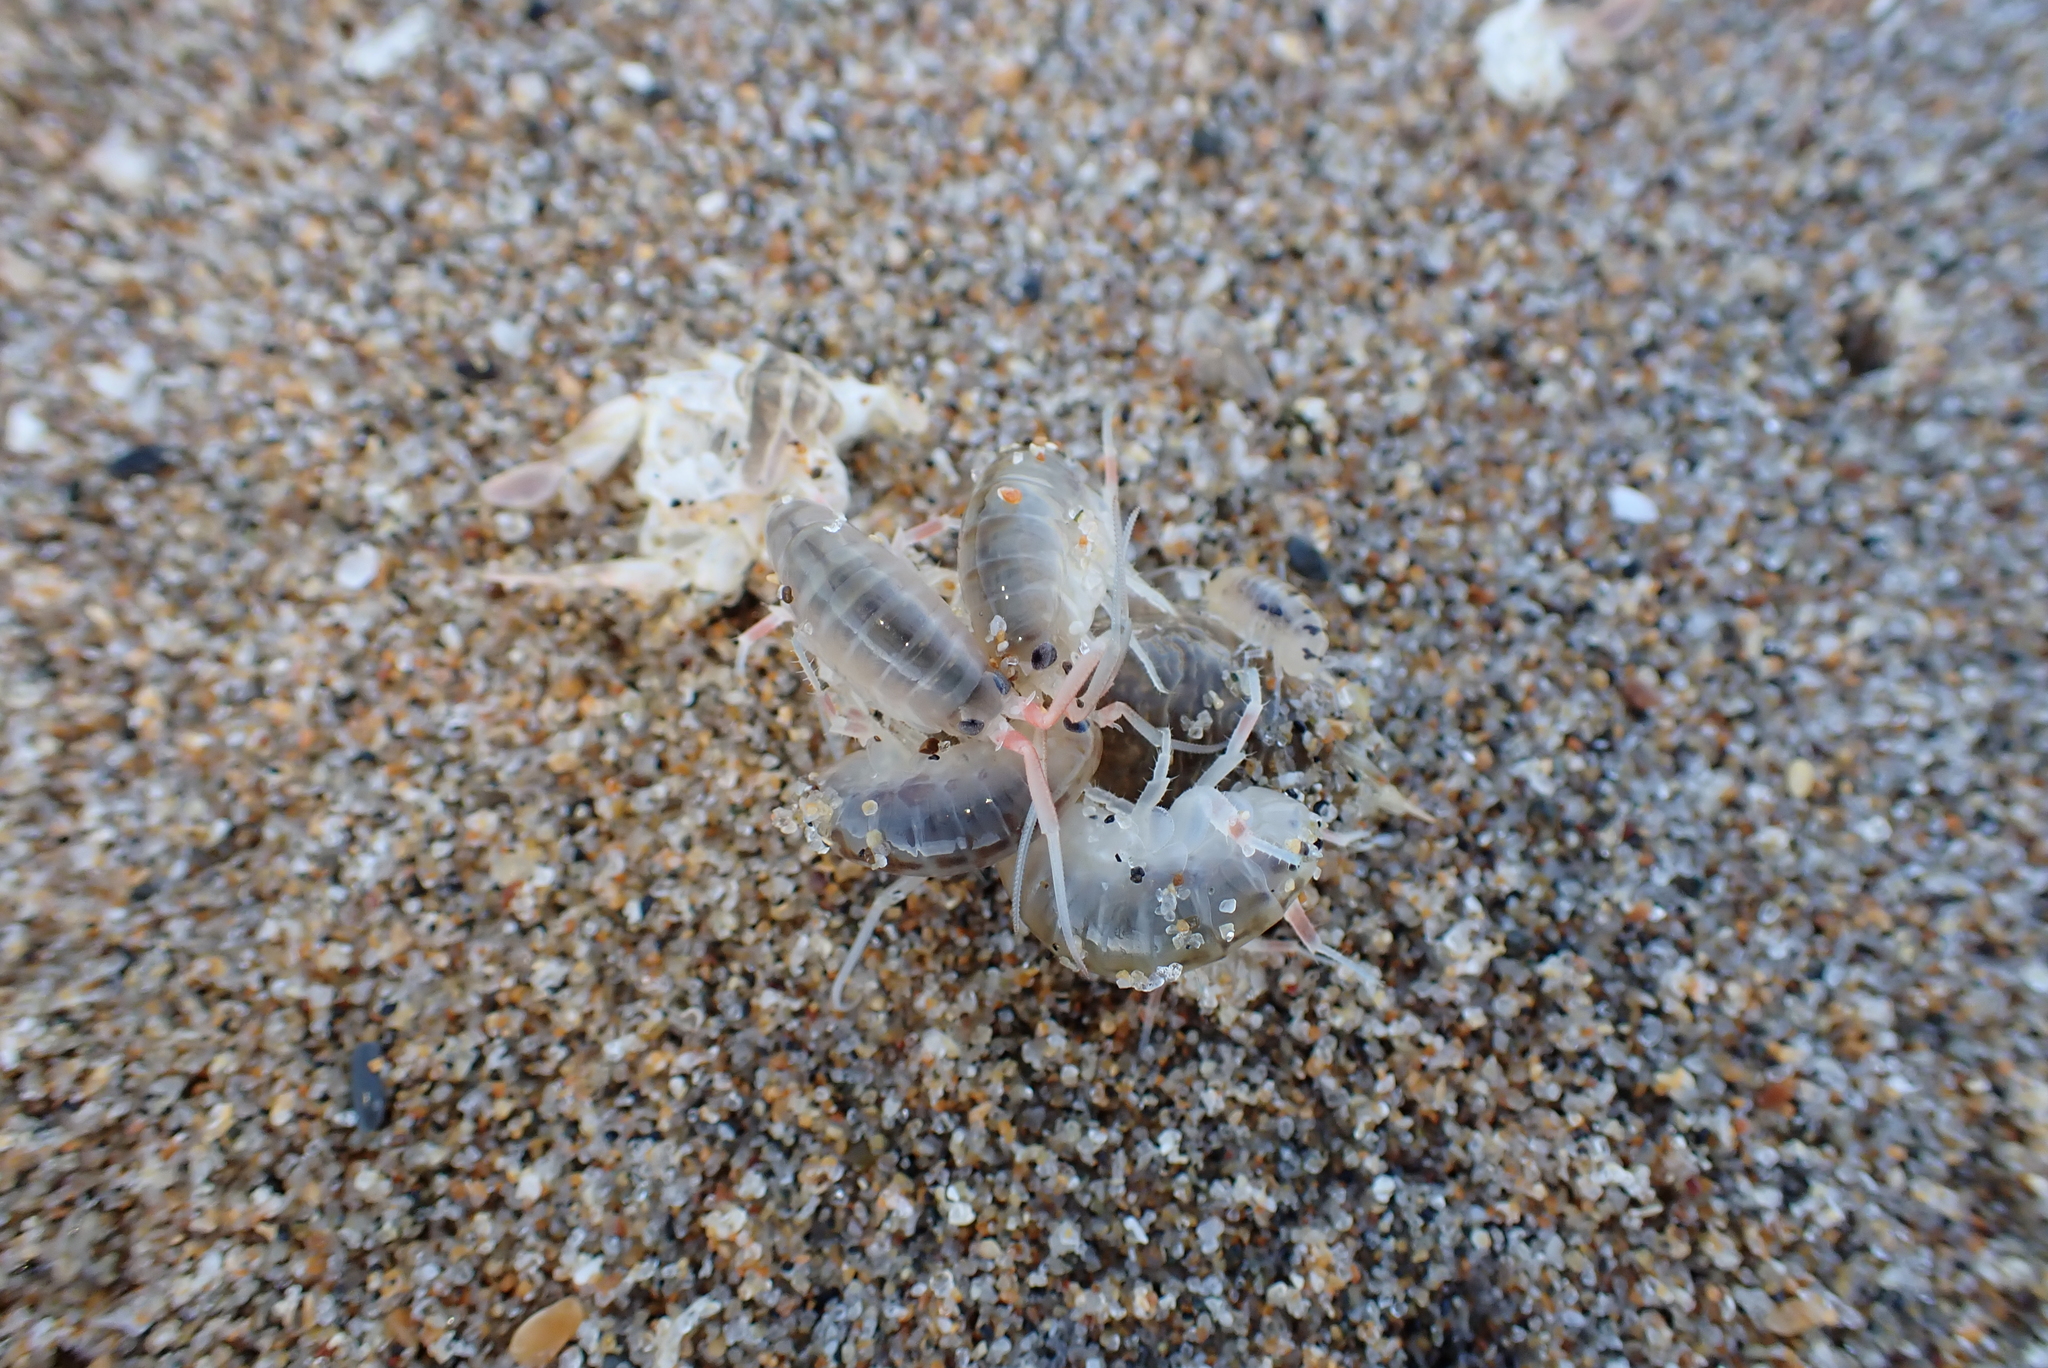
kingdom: Animalia
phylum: Arthropoda
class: Malacostraca
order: Amphipoda
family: Talitridae
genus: Megalorchestia
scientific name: Megalorchestia californiana
